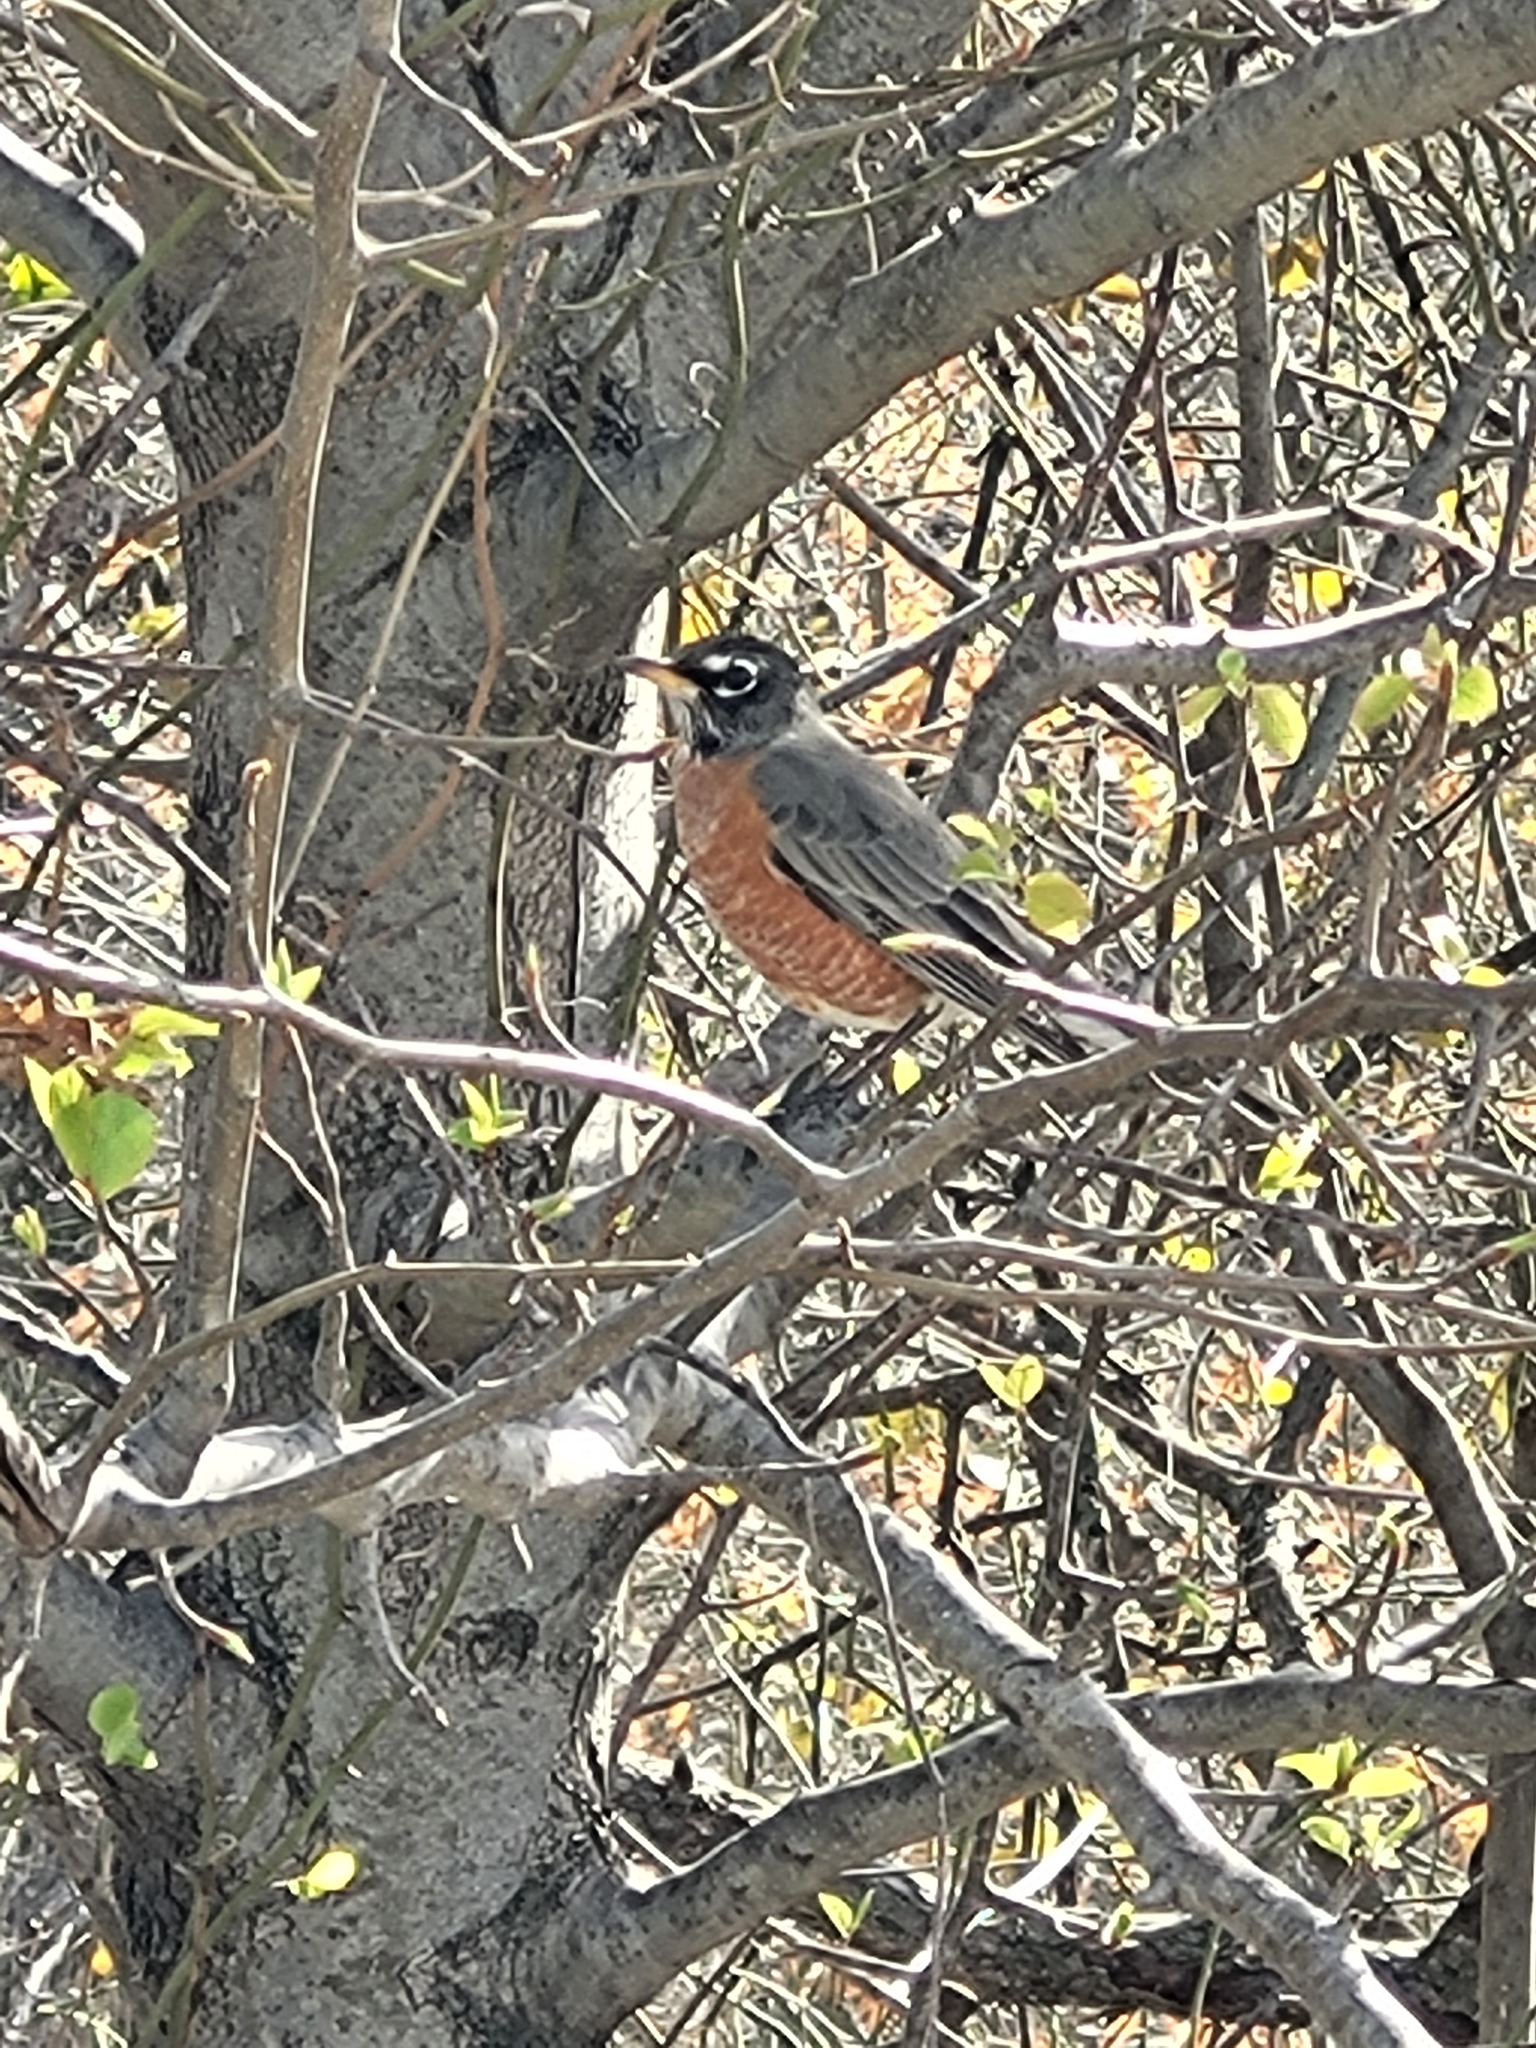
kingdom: Animalia
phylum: Chordata
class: Aves
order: Passeriformes
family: Turdidae
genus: Turdus
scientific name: Turdus migratorius
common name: American robin
